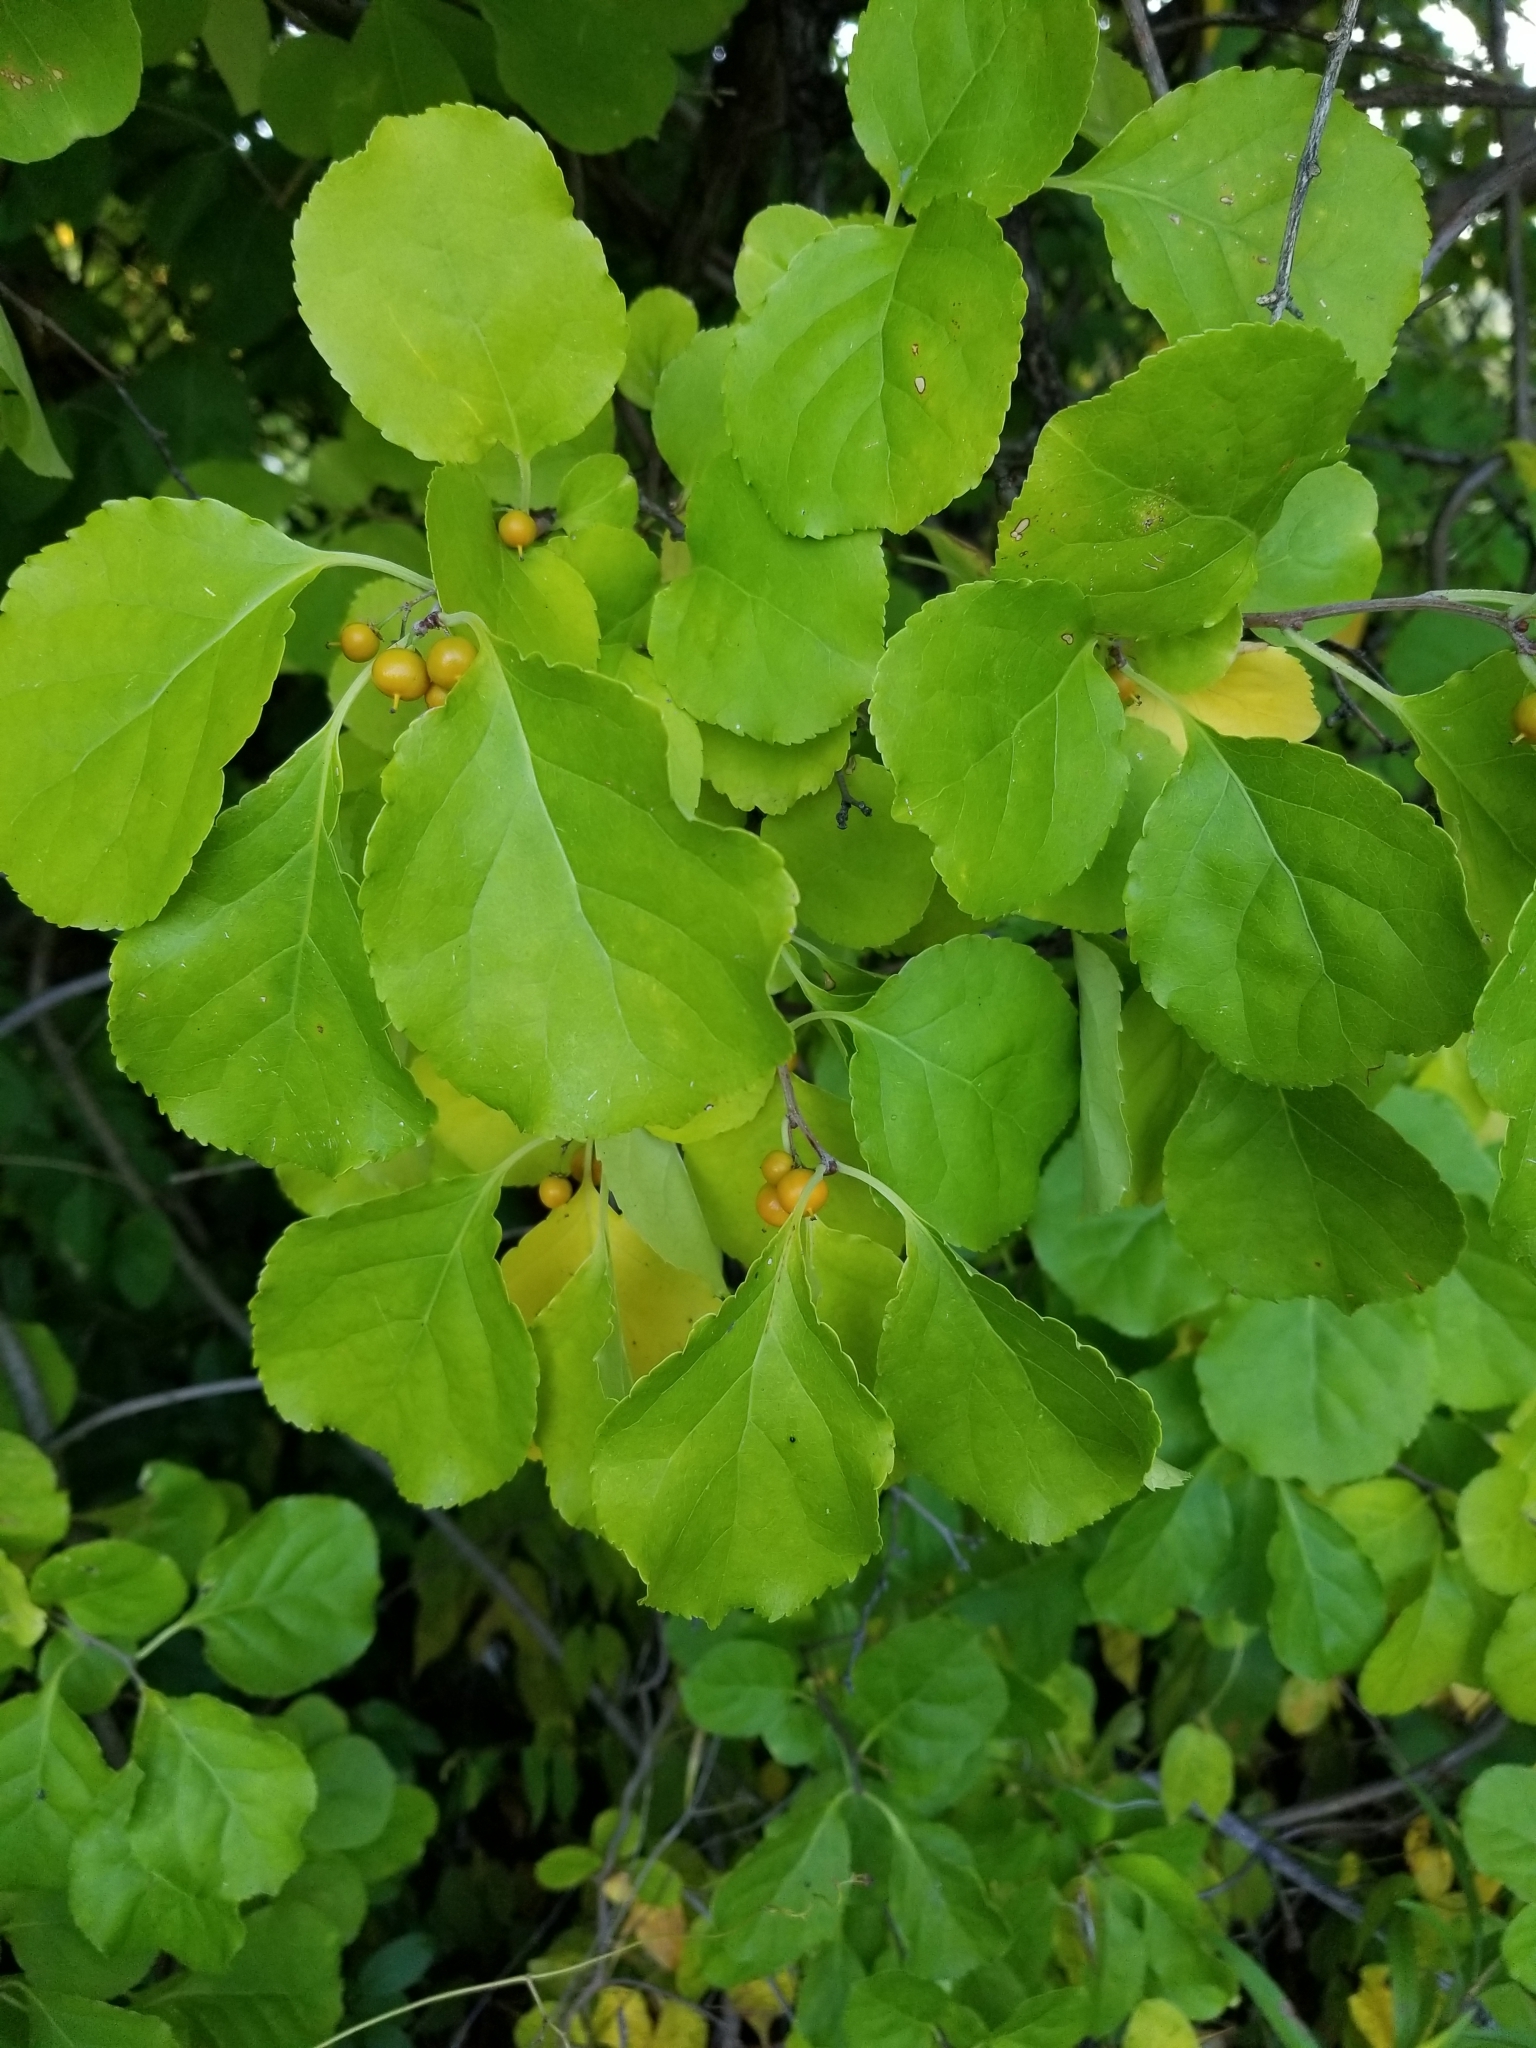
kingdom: Plantae
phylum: Tracheophyta
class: Magnoliopsida
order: Celastrales
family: Celastraceae
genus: Celastrus
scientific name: Celastrus orbiculatus
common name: Oriental bittersweet
